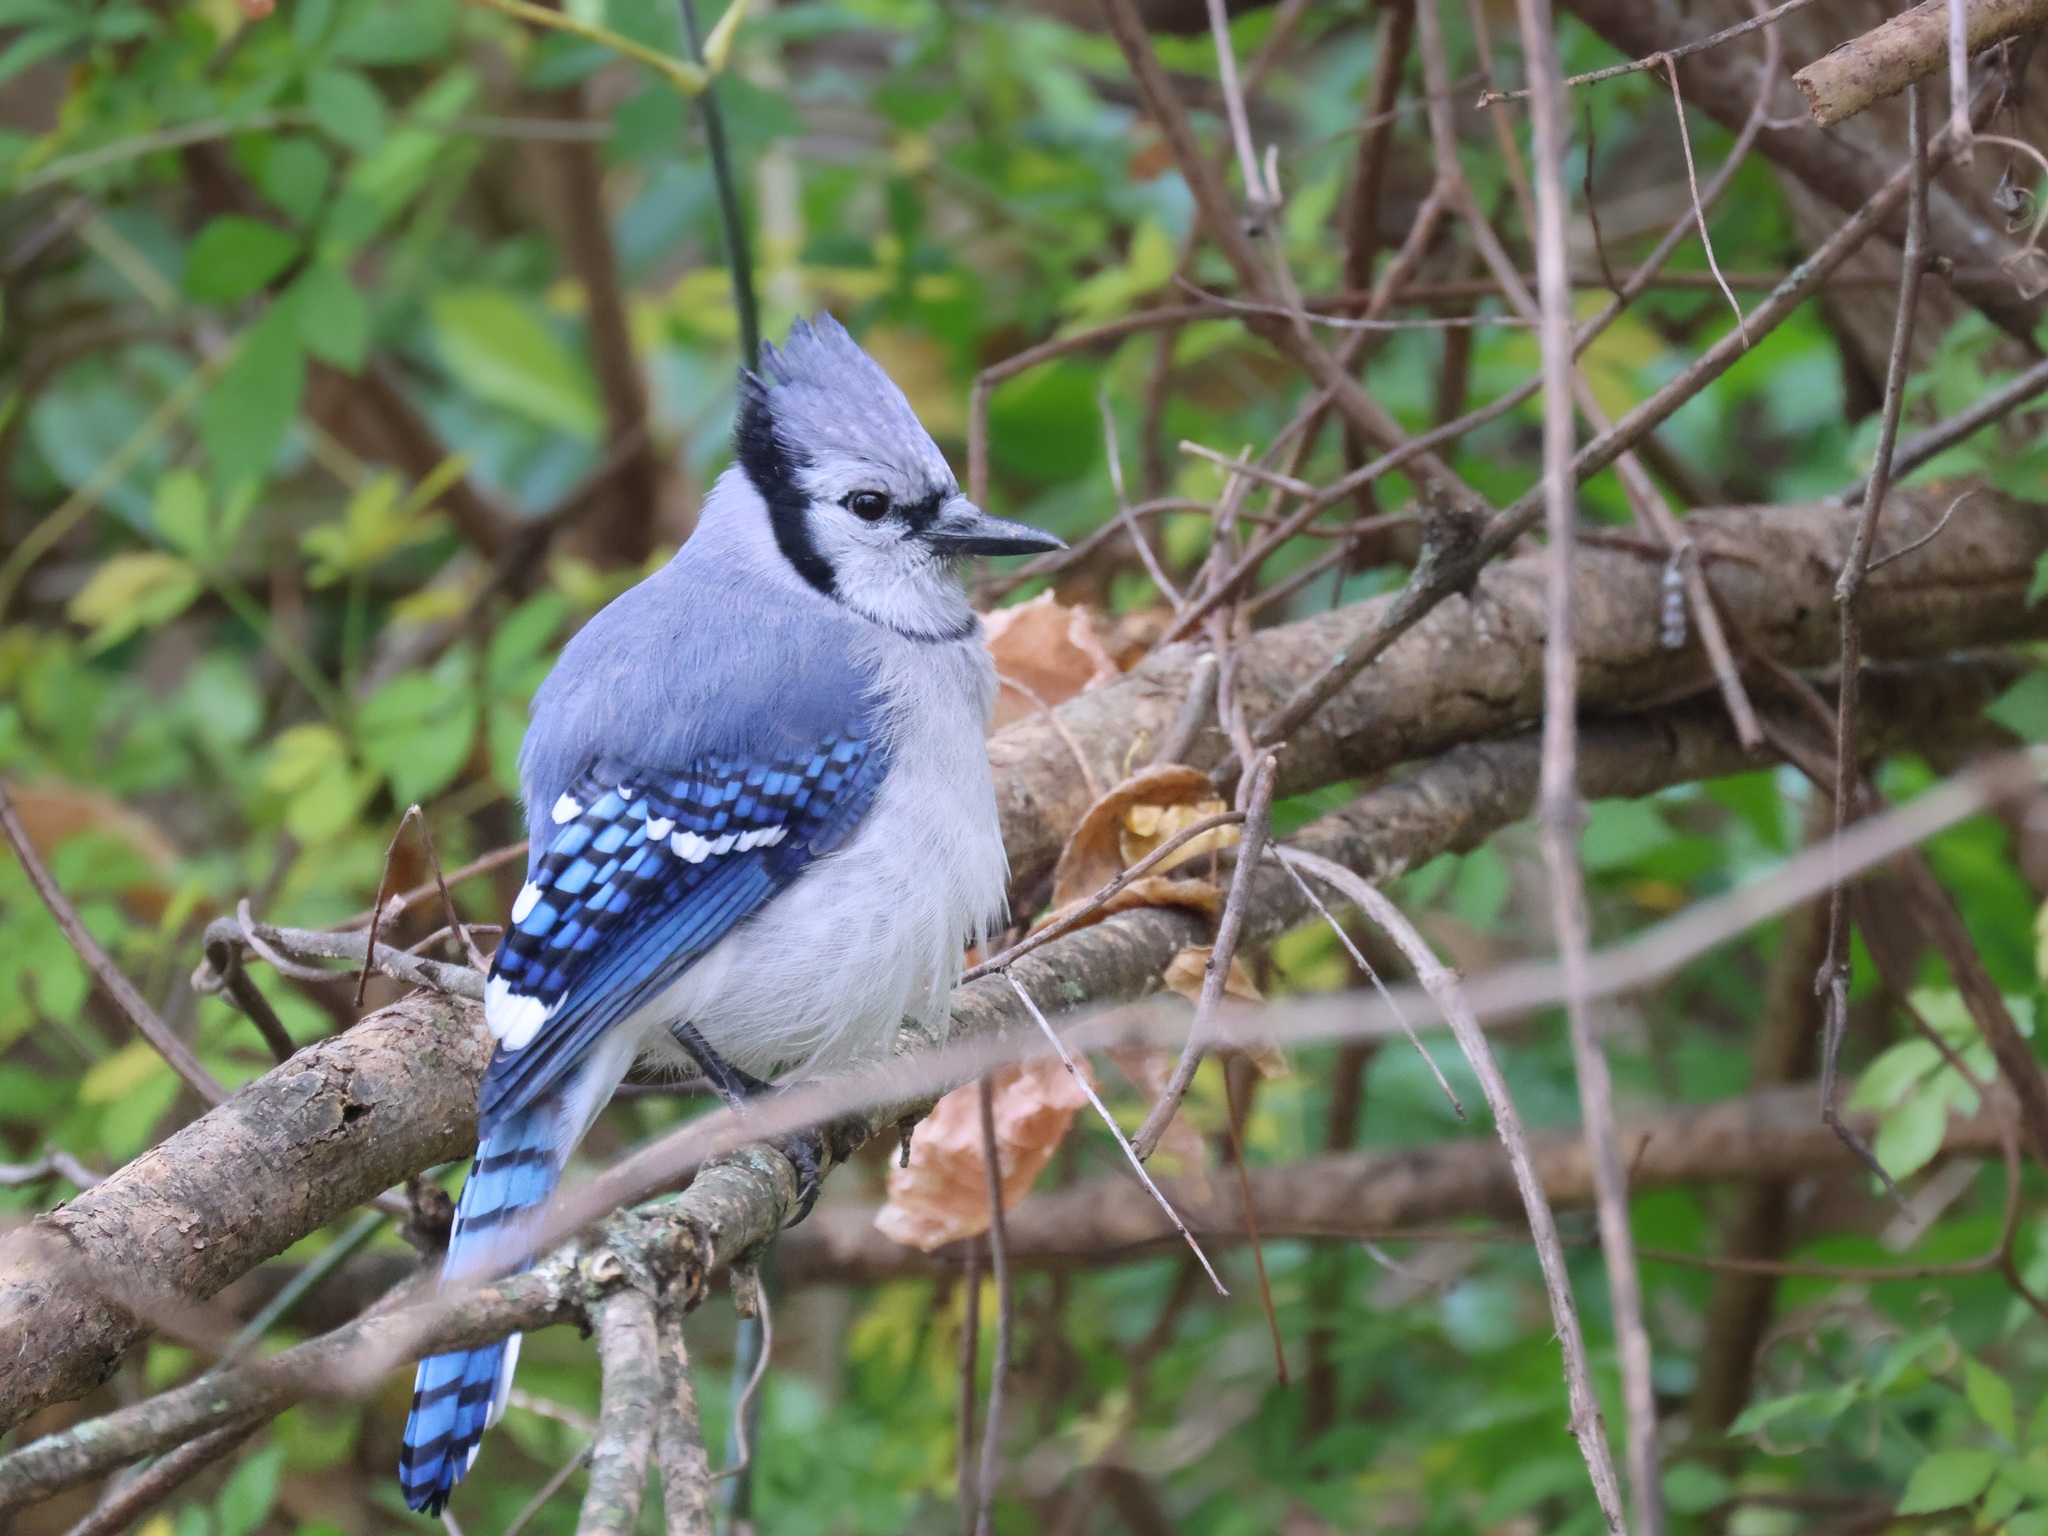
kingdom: Animalia
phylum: Chordata
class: Aves
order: Passeriformes
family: Corvidae
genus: Cyanocitta
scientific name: Cyanocitta cristata
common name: Blue jay
